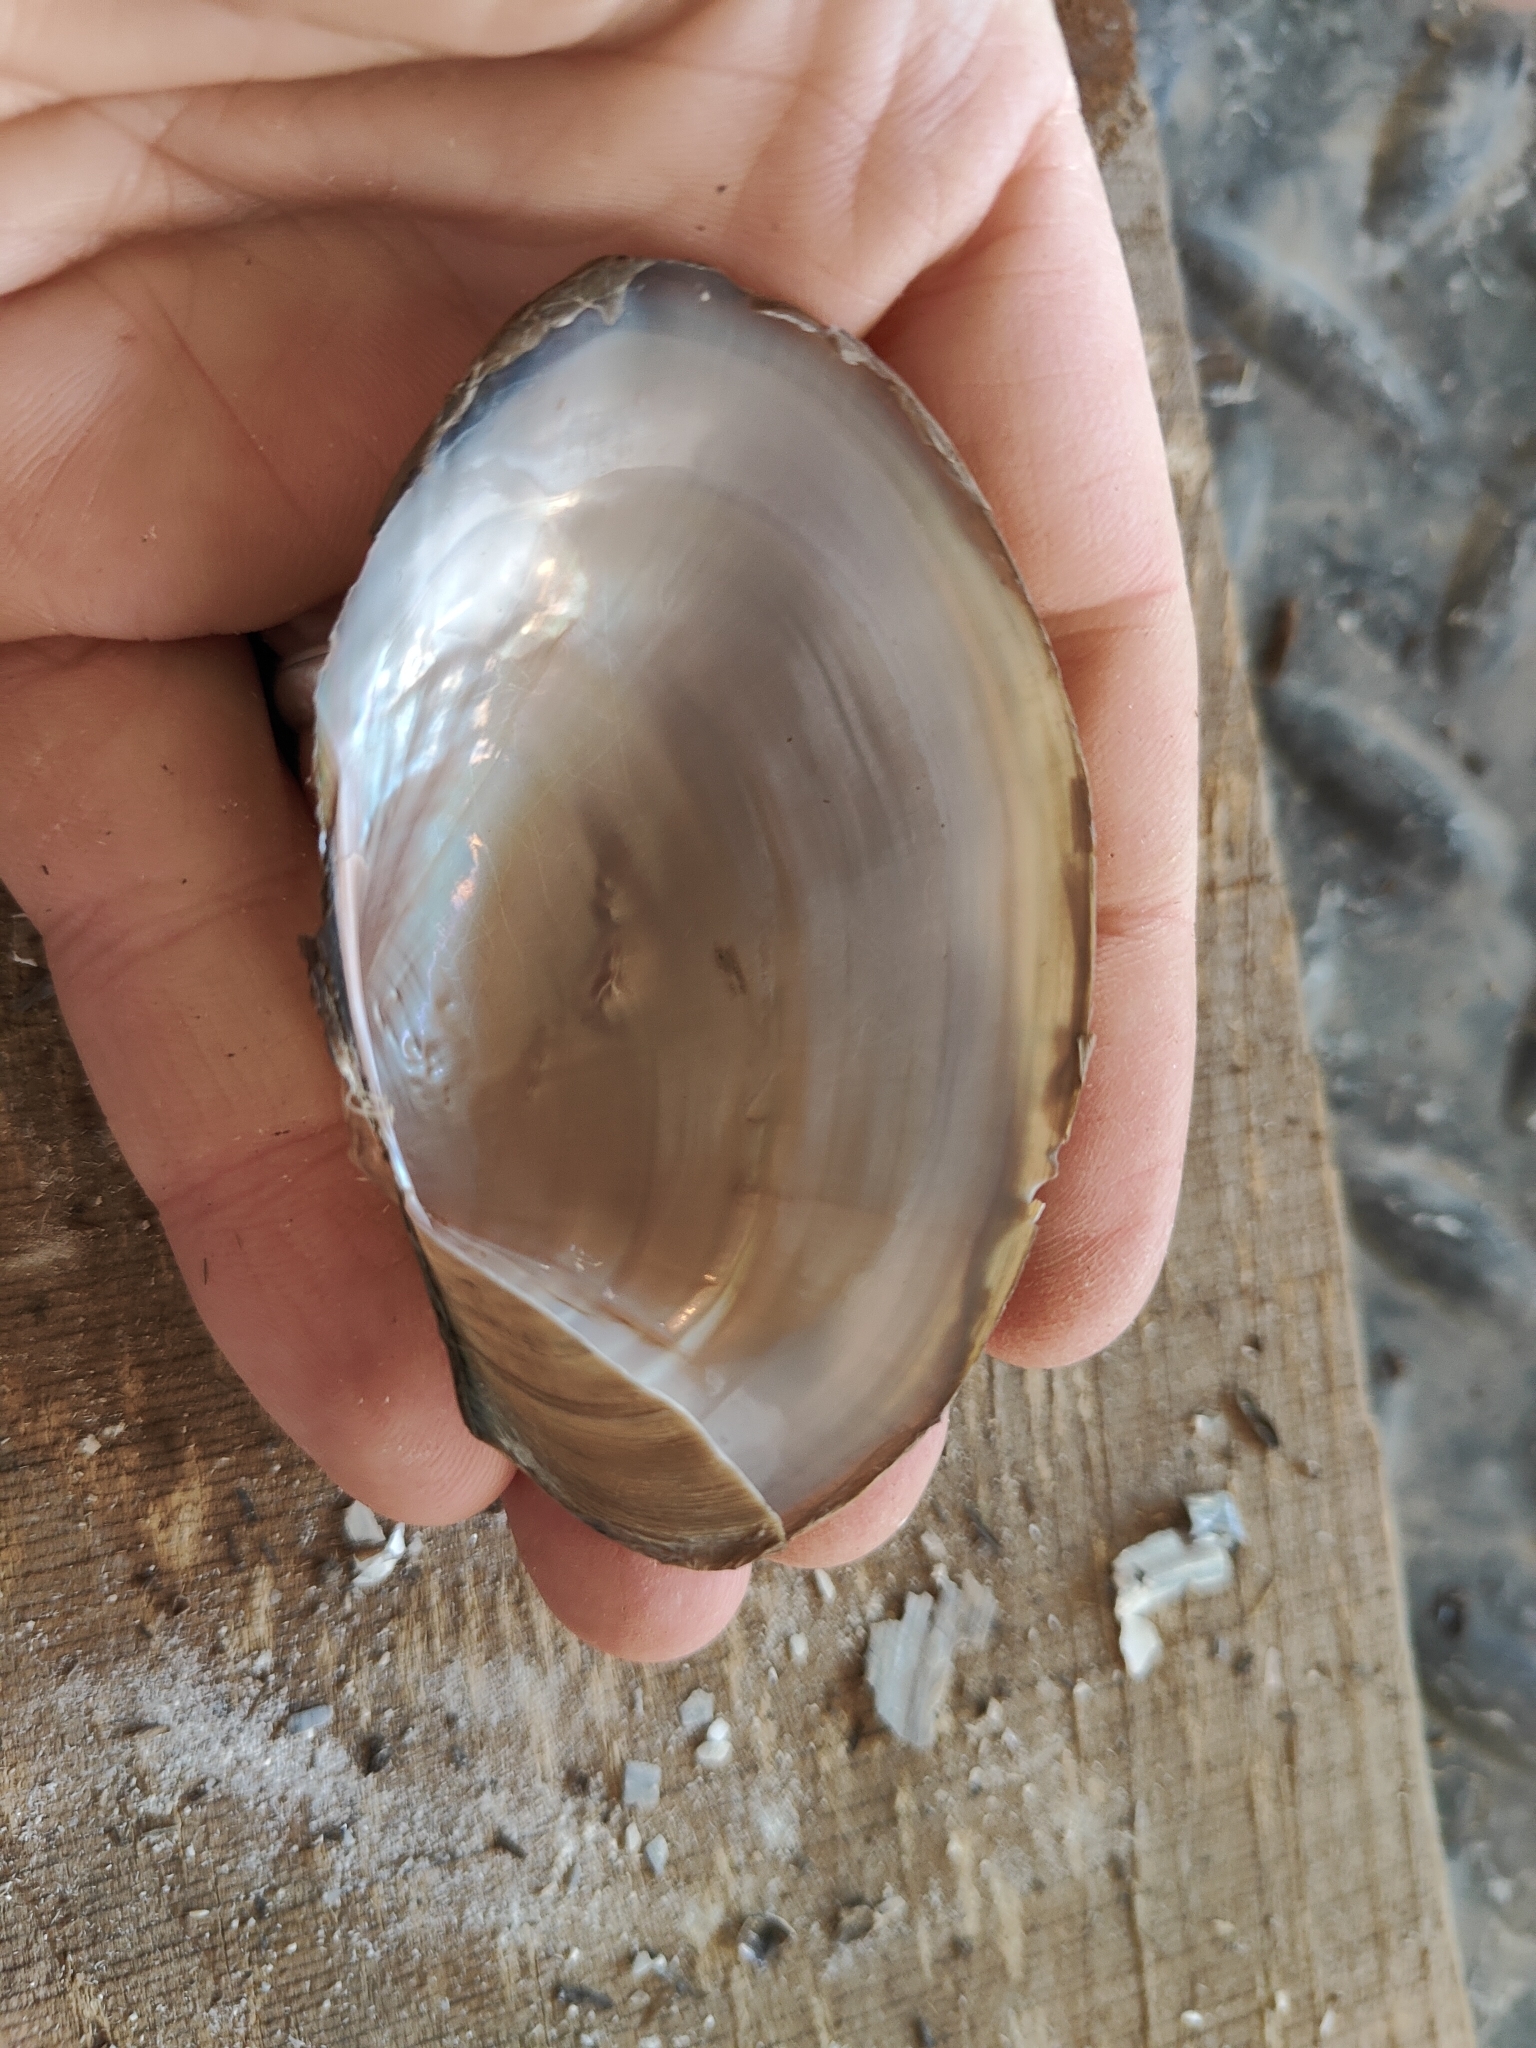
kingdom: Animalia
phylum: Mollusca
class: Bivalvia
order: Unionida
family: Unionidae
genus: Pyganodon
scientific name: Pyganodon grandis
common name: Giant floater
